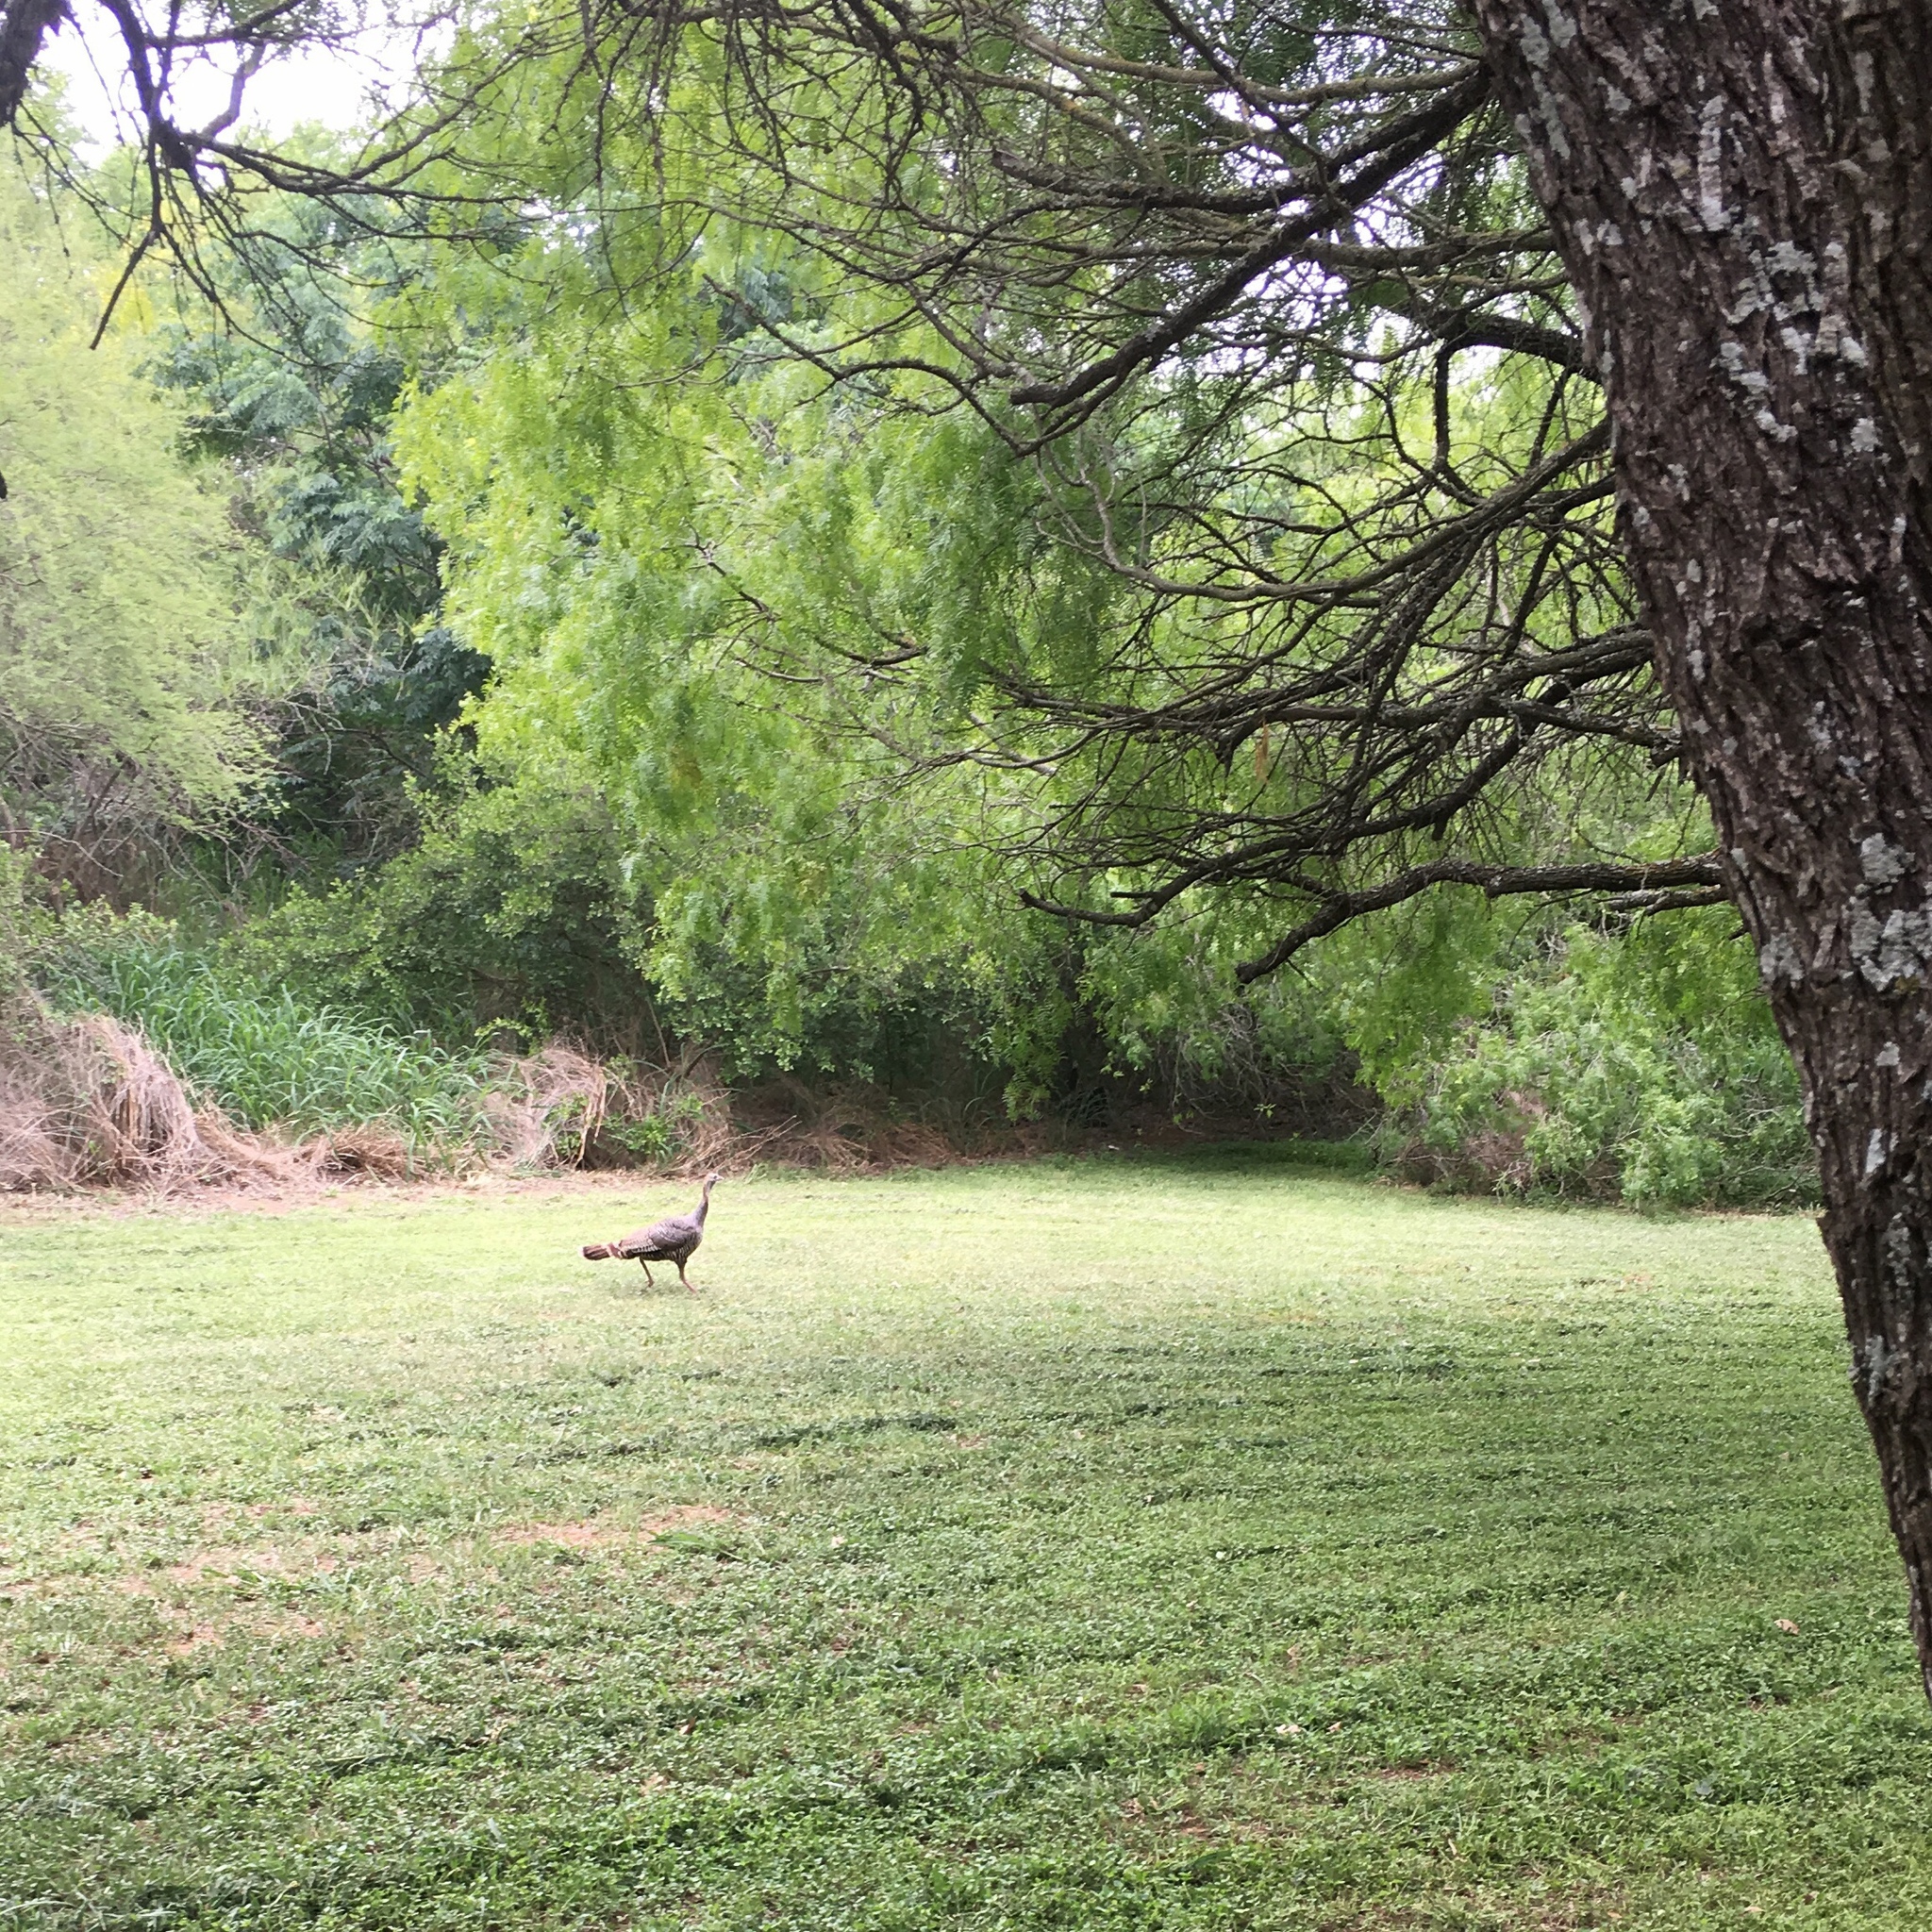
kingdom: Animalia
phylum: Chordata
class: Aves
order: Galliformes
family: Phasianidae
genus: Meleagris
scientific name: Meleagris gallopavo
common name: Wild turkey
